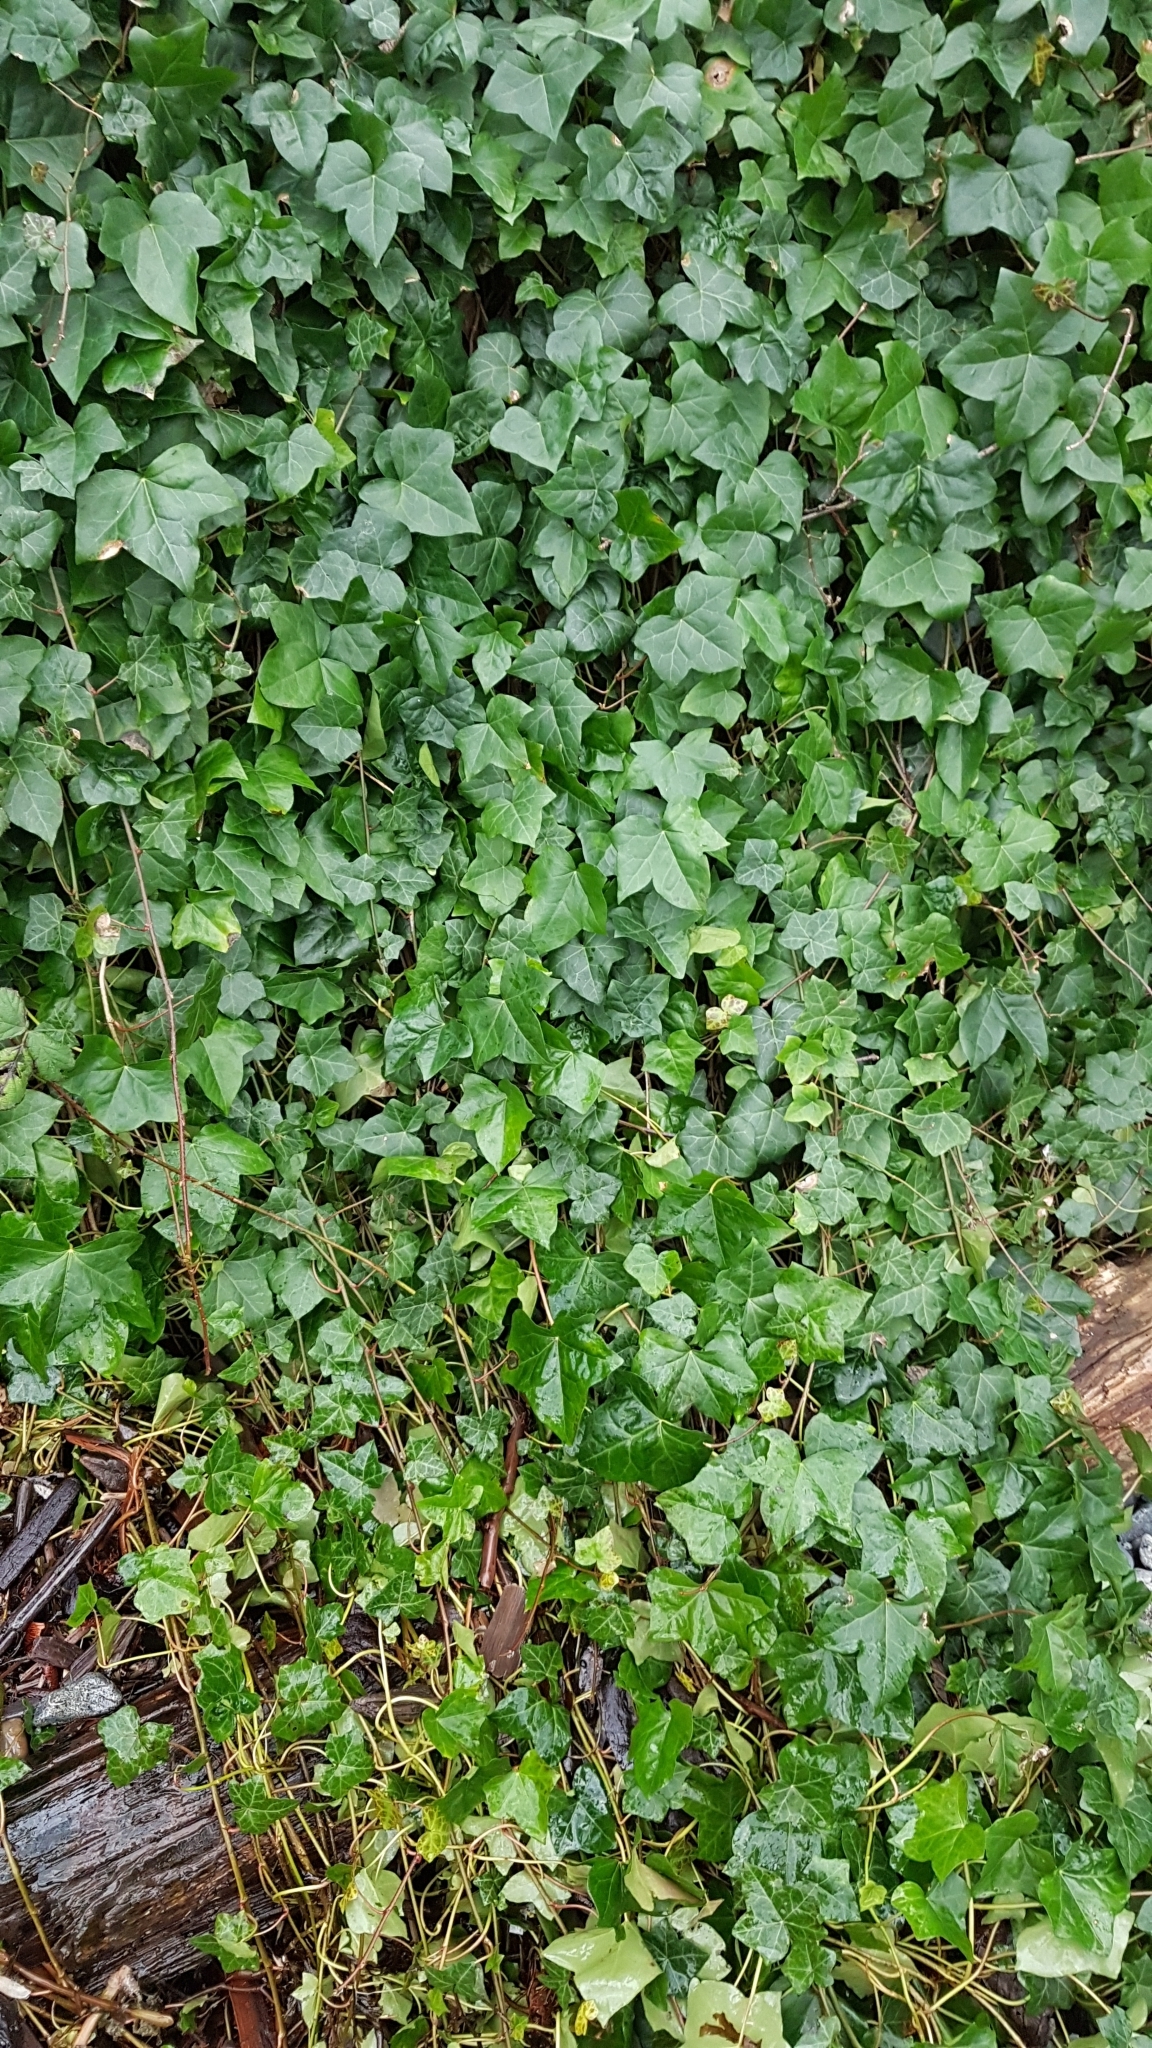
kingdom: Plantae
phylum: Tracheophyta
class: Magnoliopsida
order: Apiales
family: Araliaceae
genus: Hedera
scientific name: Hedera helix
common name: Ivy
